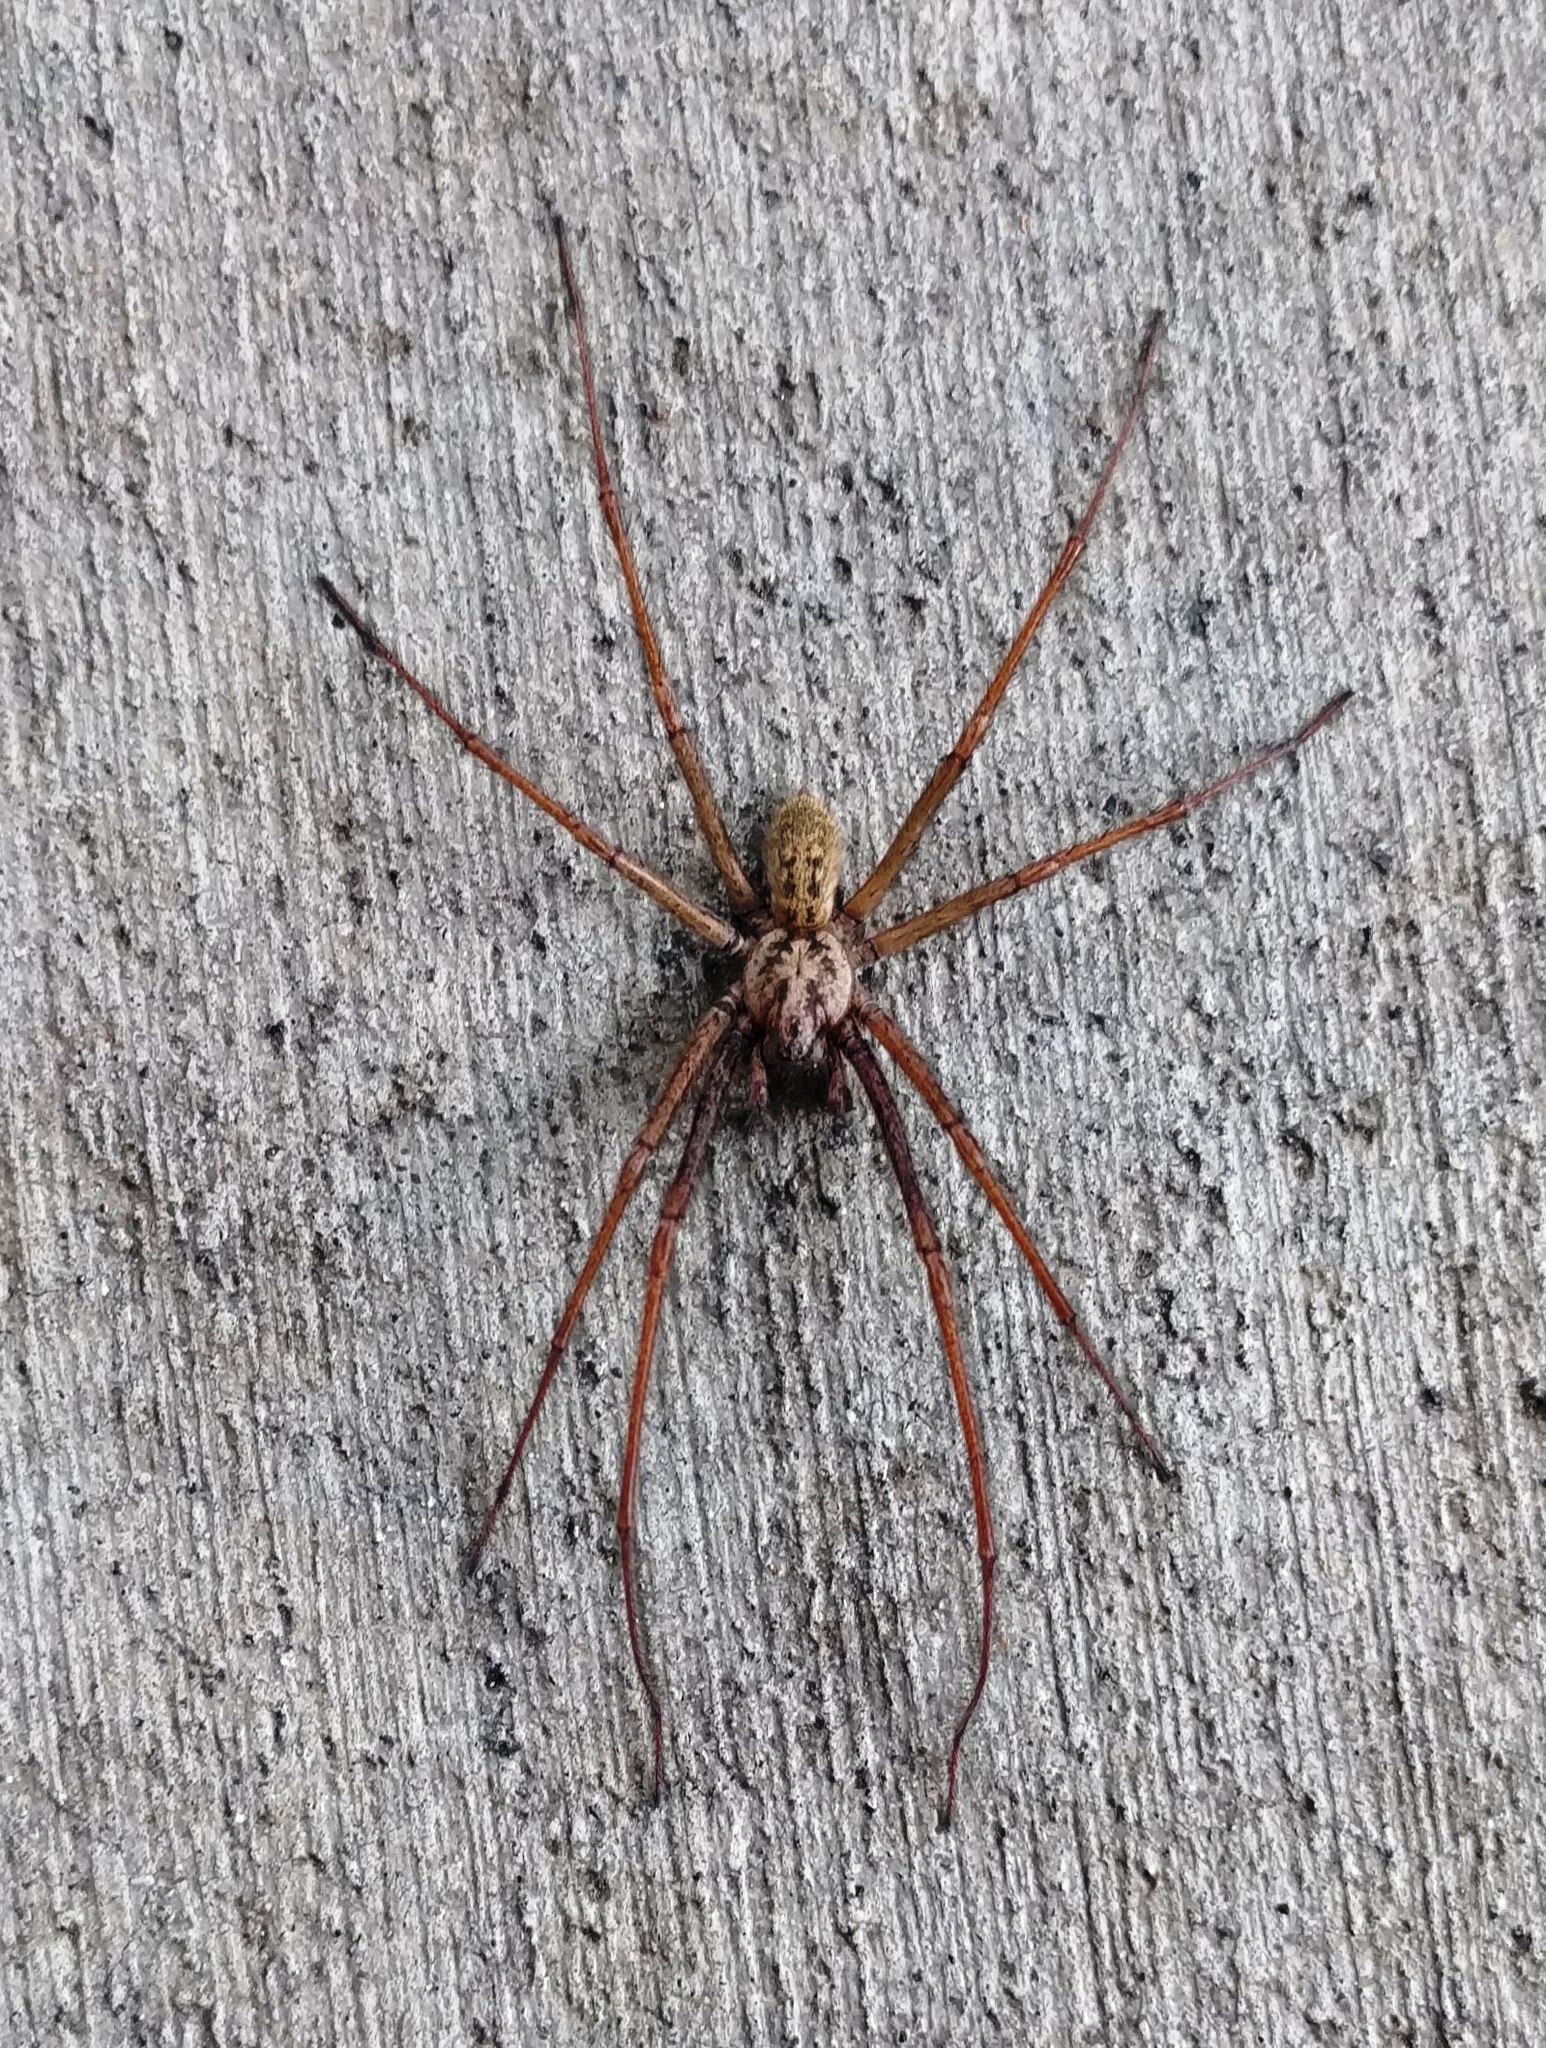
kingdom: Animalia
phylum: Arthropoda
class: Arachnida
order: Araneae
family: Agelenidae
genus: Eratigena
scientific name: Eratigena duellica
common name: Giant house spider
